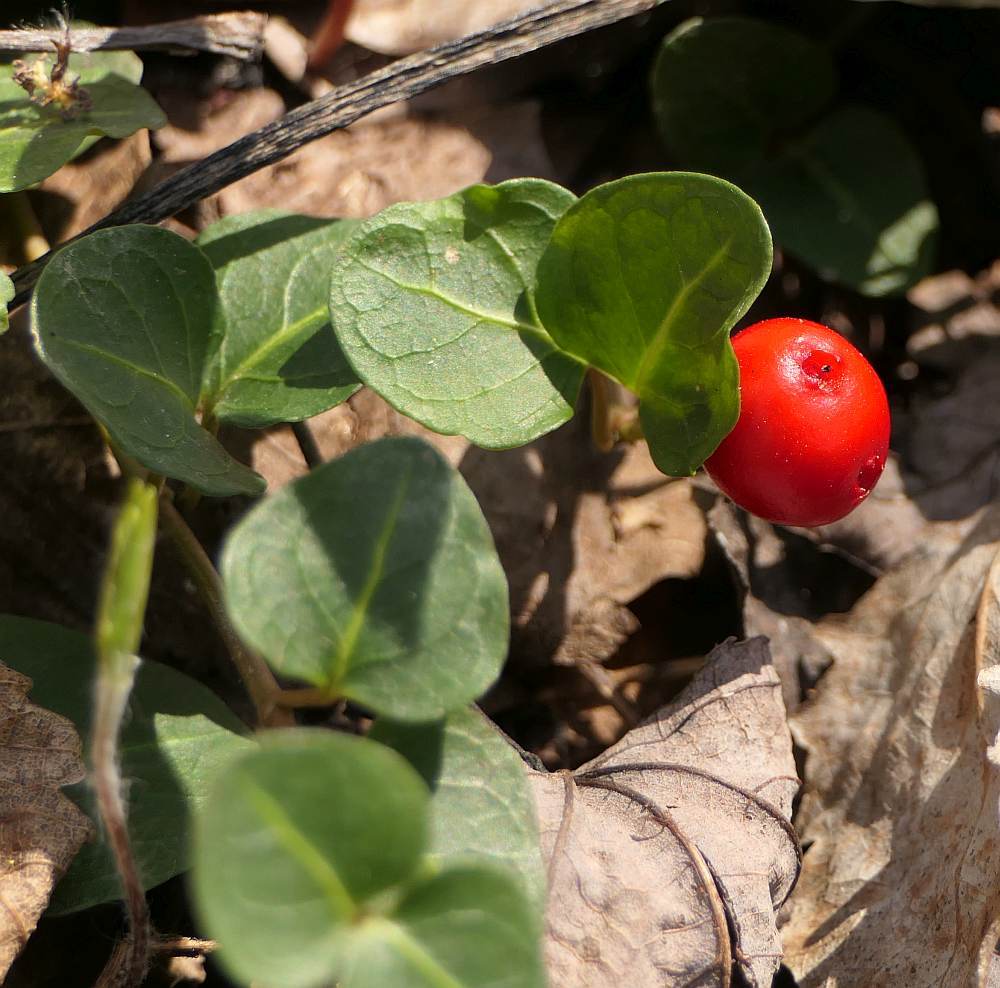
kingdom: Plantae
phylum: Tracheophyta
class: Magnoliopsida
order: Gentianales
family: Rubiaceae
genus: Mitchella
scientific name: Mitchella repens
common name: Partridge-berry
